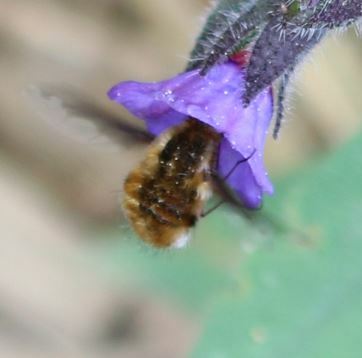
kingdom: Animalia
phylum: Arthropoda
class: Insecta
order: Diptera
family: Bombyliidae
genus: Bombylius
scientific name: Bombylius major
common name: Bee fly
